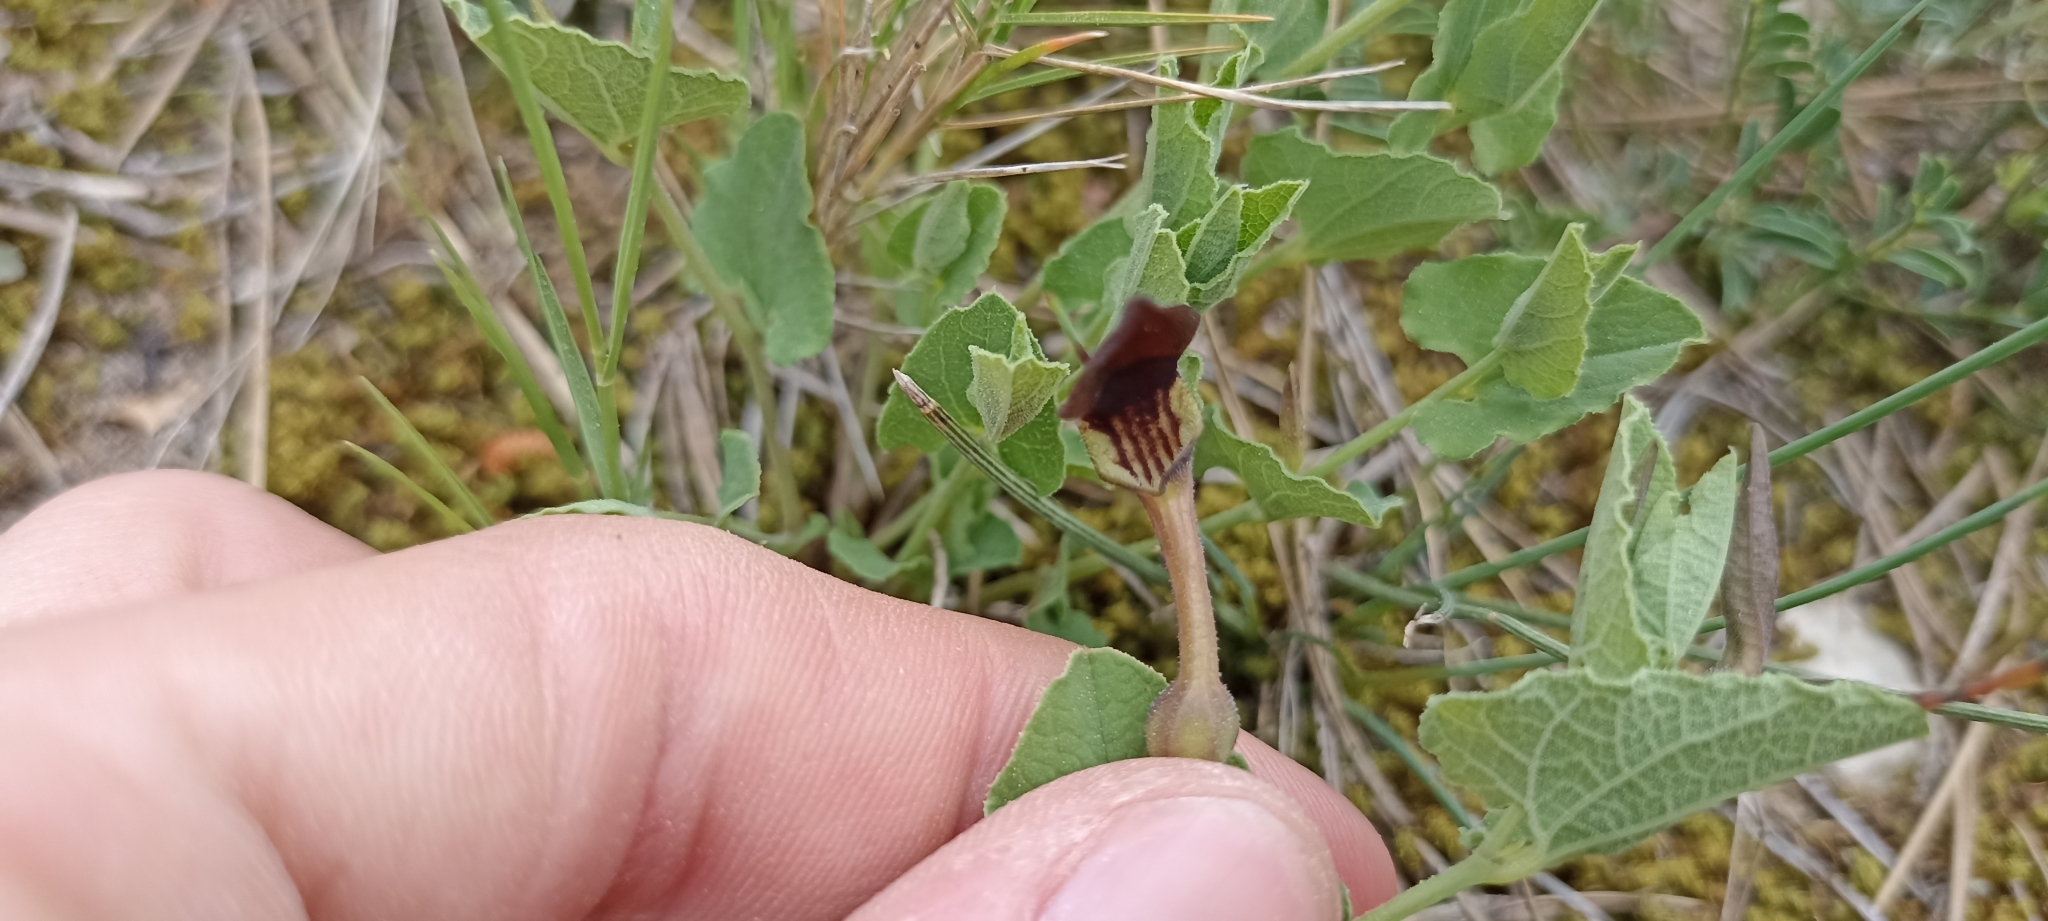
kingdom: Plantae
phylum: Tracheophyta
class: Magnoliopsida
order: Piperales
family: Aristolochiaceae
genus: Aristolochia
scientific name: Aristolochia pistolochia
